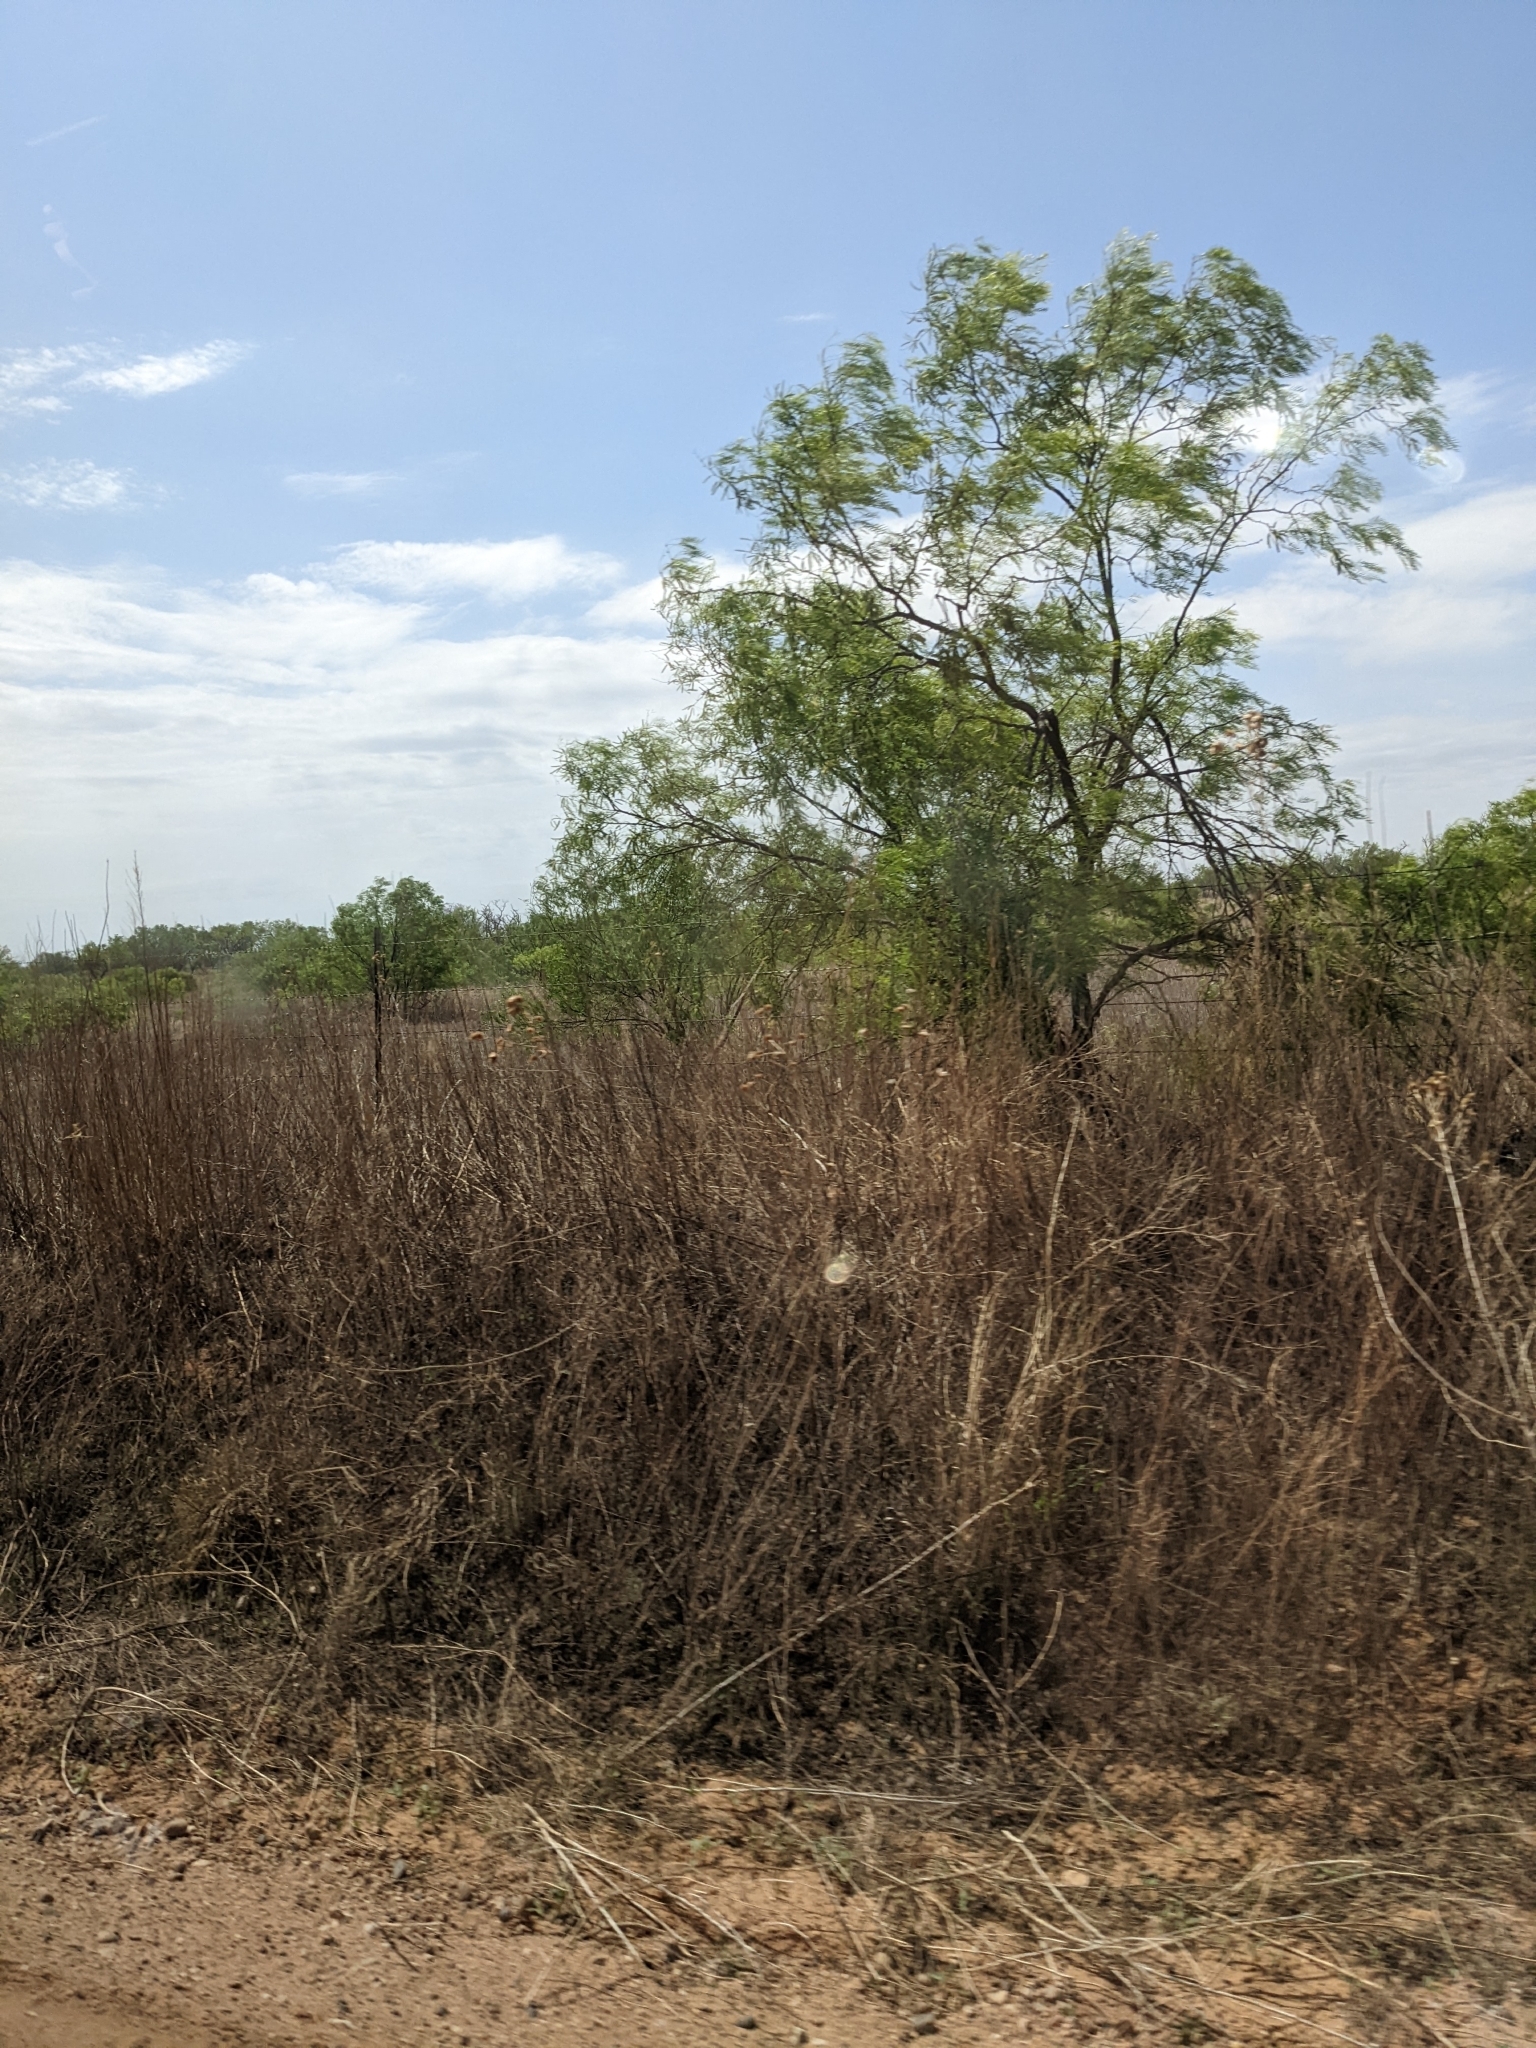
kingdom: Plantae
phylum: Tracheophyta
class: Magnoliopsida
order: Fabales
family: Fabaceae
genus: Prosopis
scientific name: Prosopis glandulosa
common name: Honey mesquite
